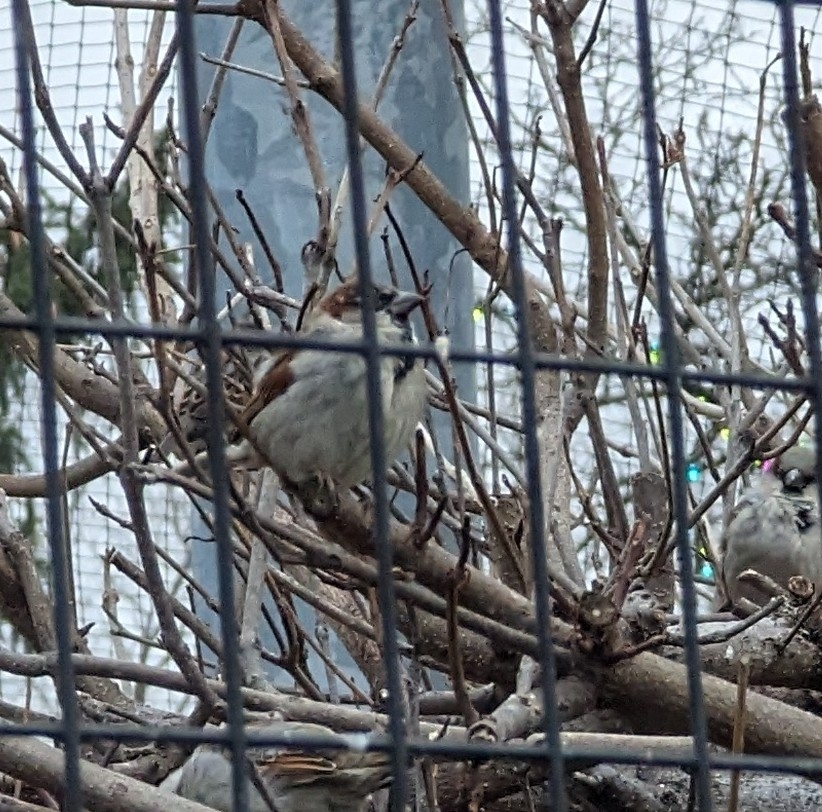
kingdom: Animalia
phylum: Chordata
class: Aves
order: Passeriformes
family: Passeridae
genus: Passer
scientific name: Passer domesticus
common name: House sparrow
